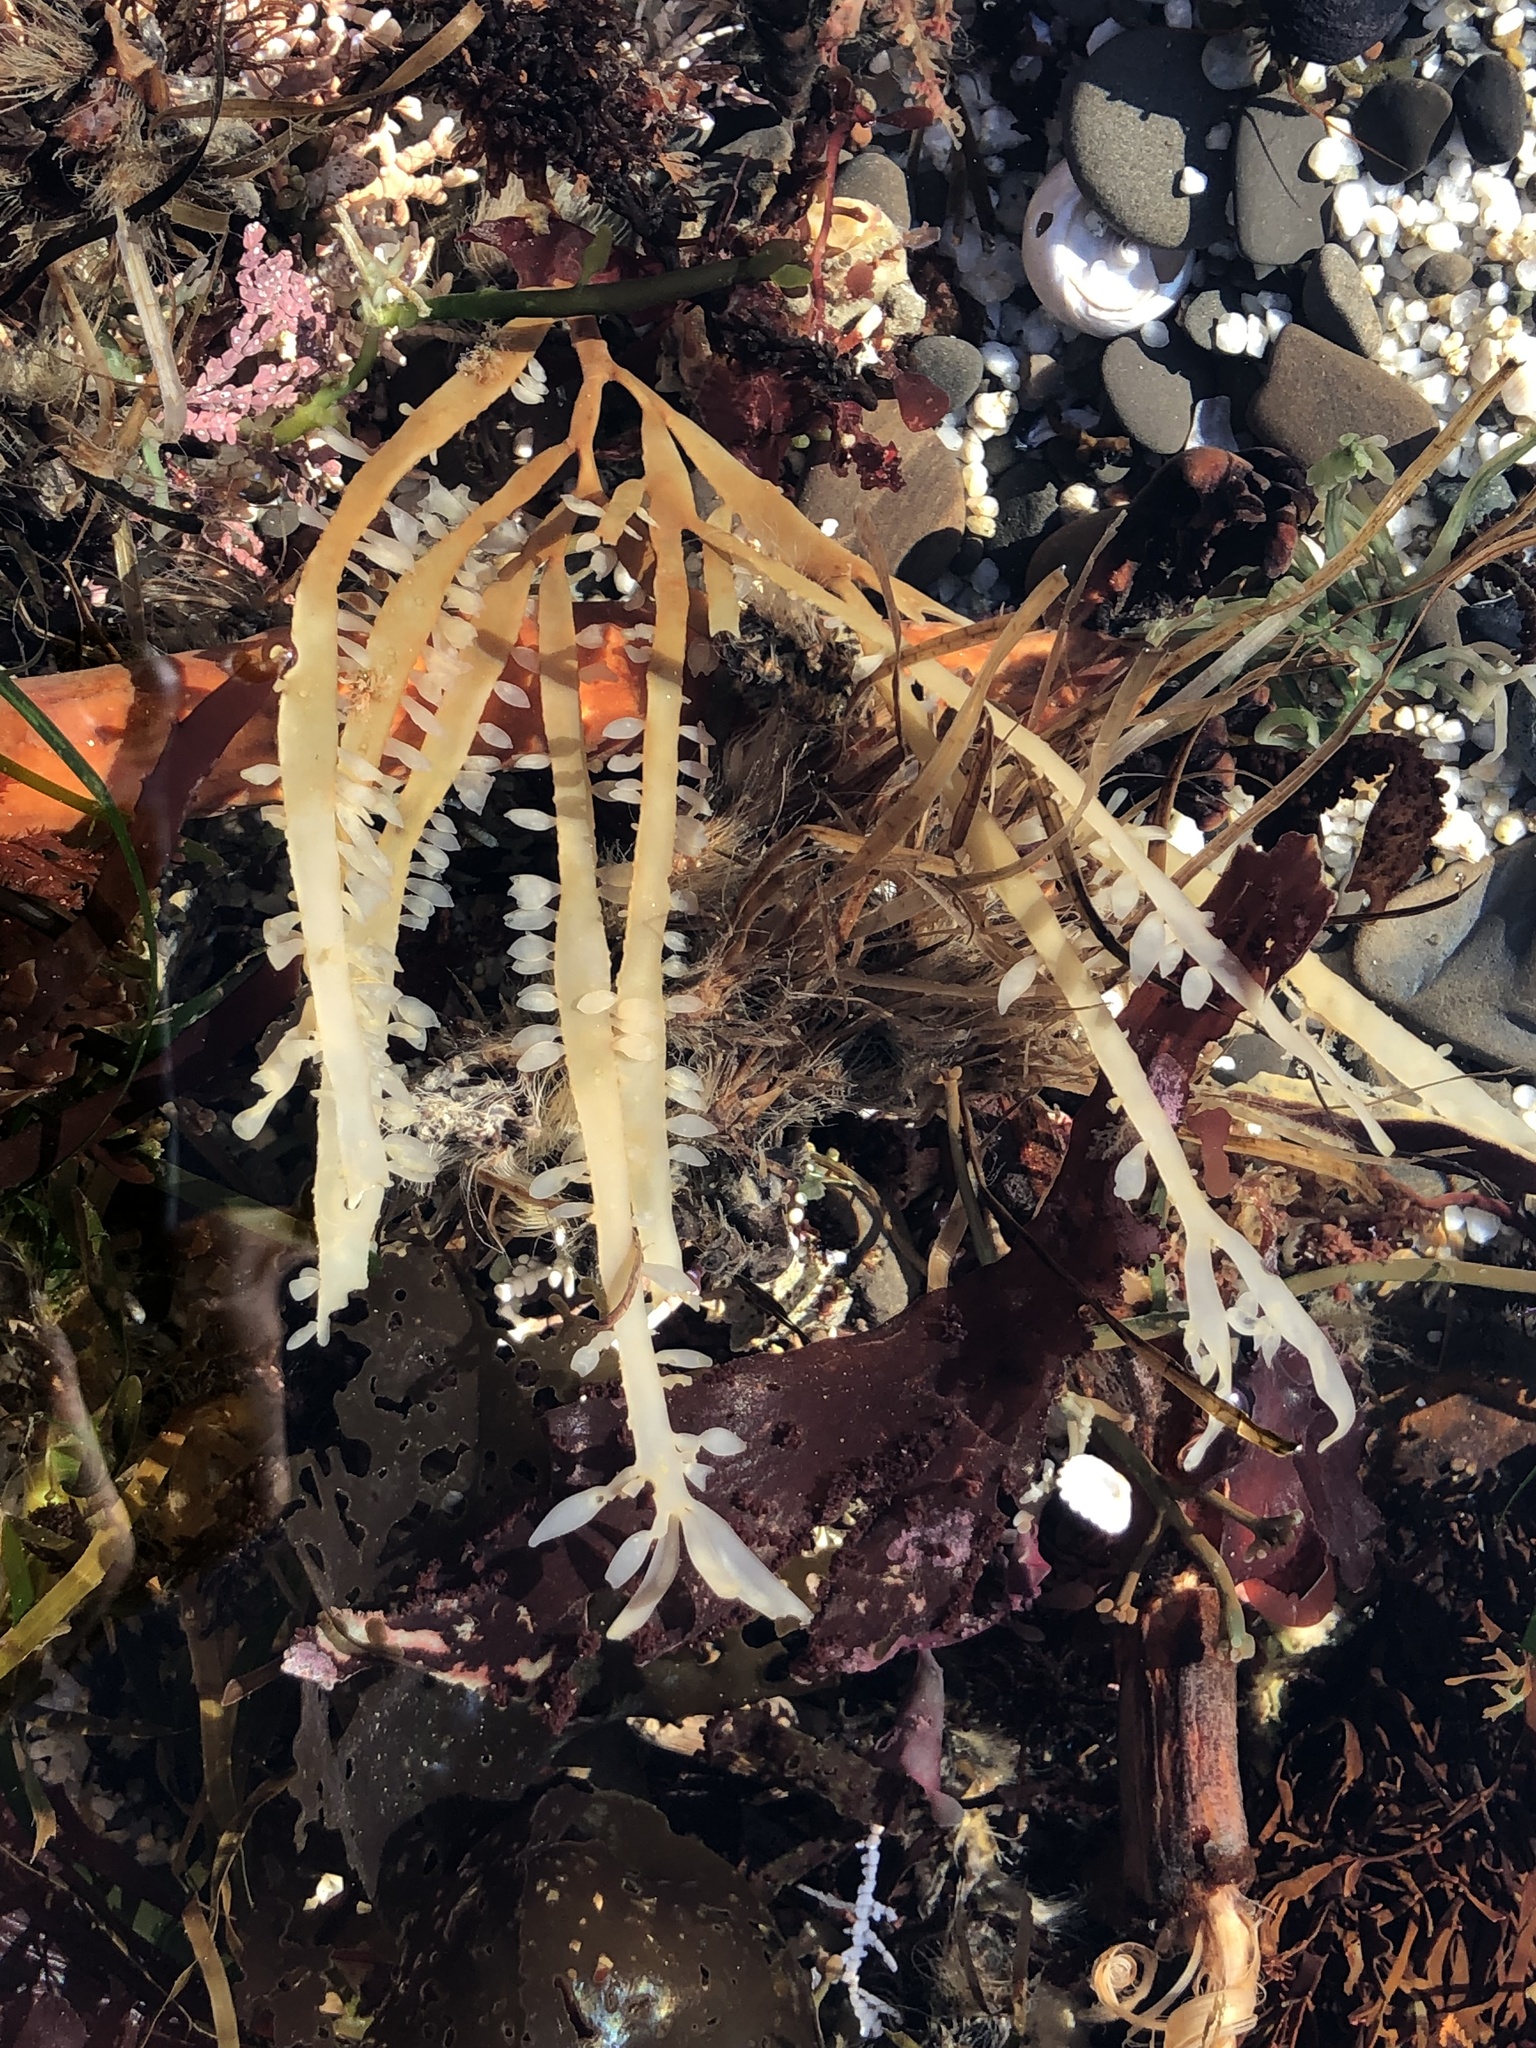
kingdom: Plantae
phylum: Rhodophyta
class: Florideophyceae
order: Halymeniales
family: Halymeniaceae
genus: Grateloupia
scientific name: Grateloupia Prionitis lanceolata
